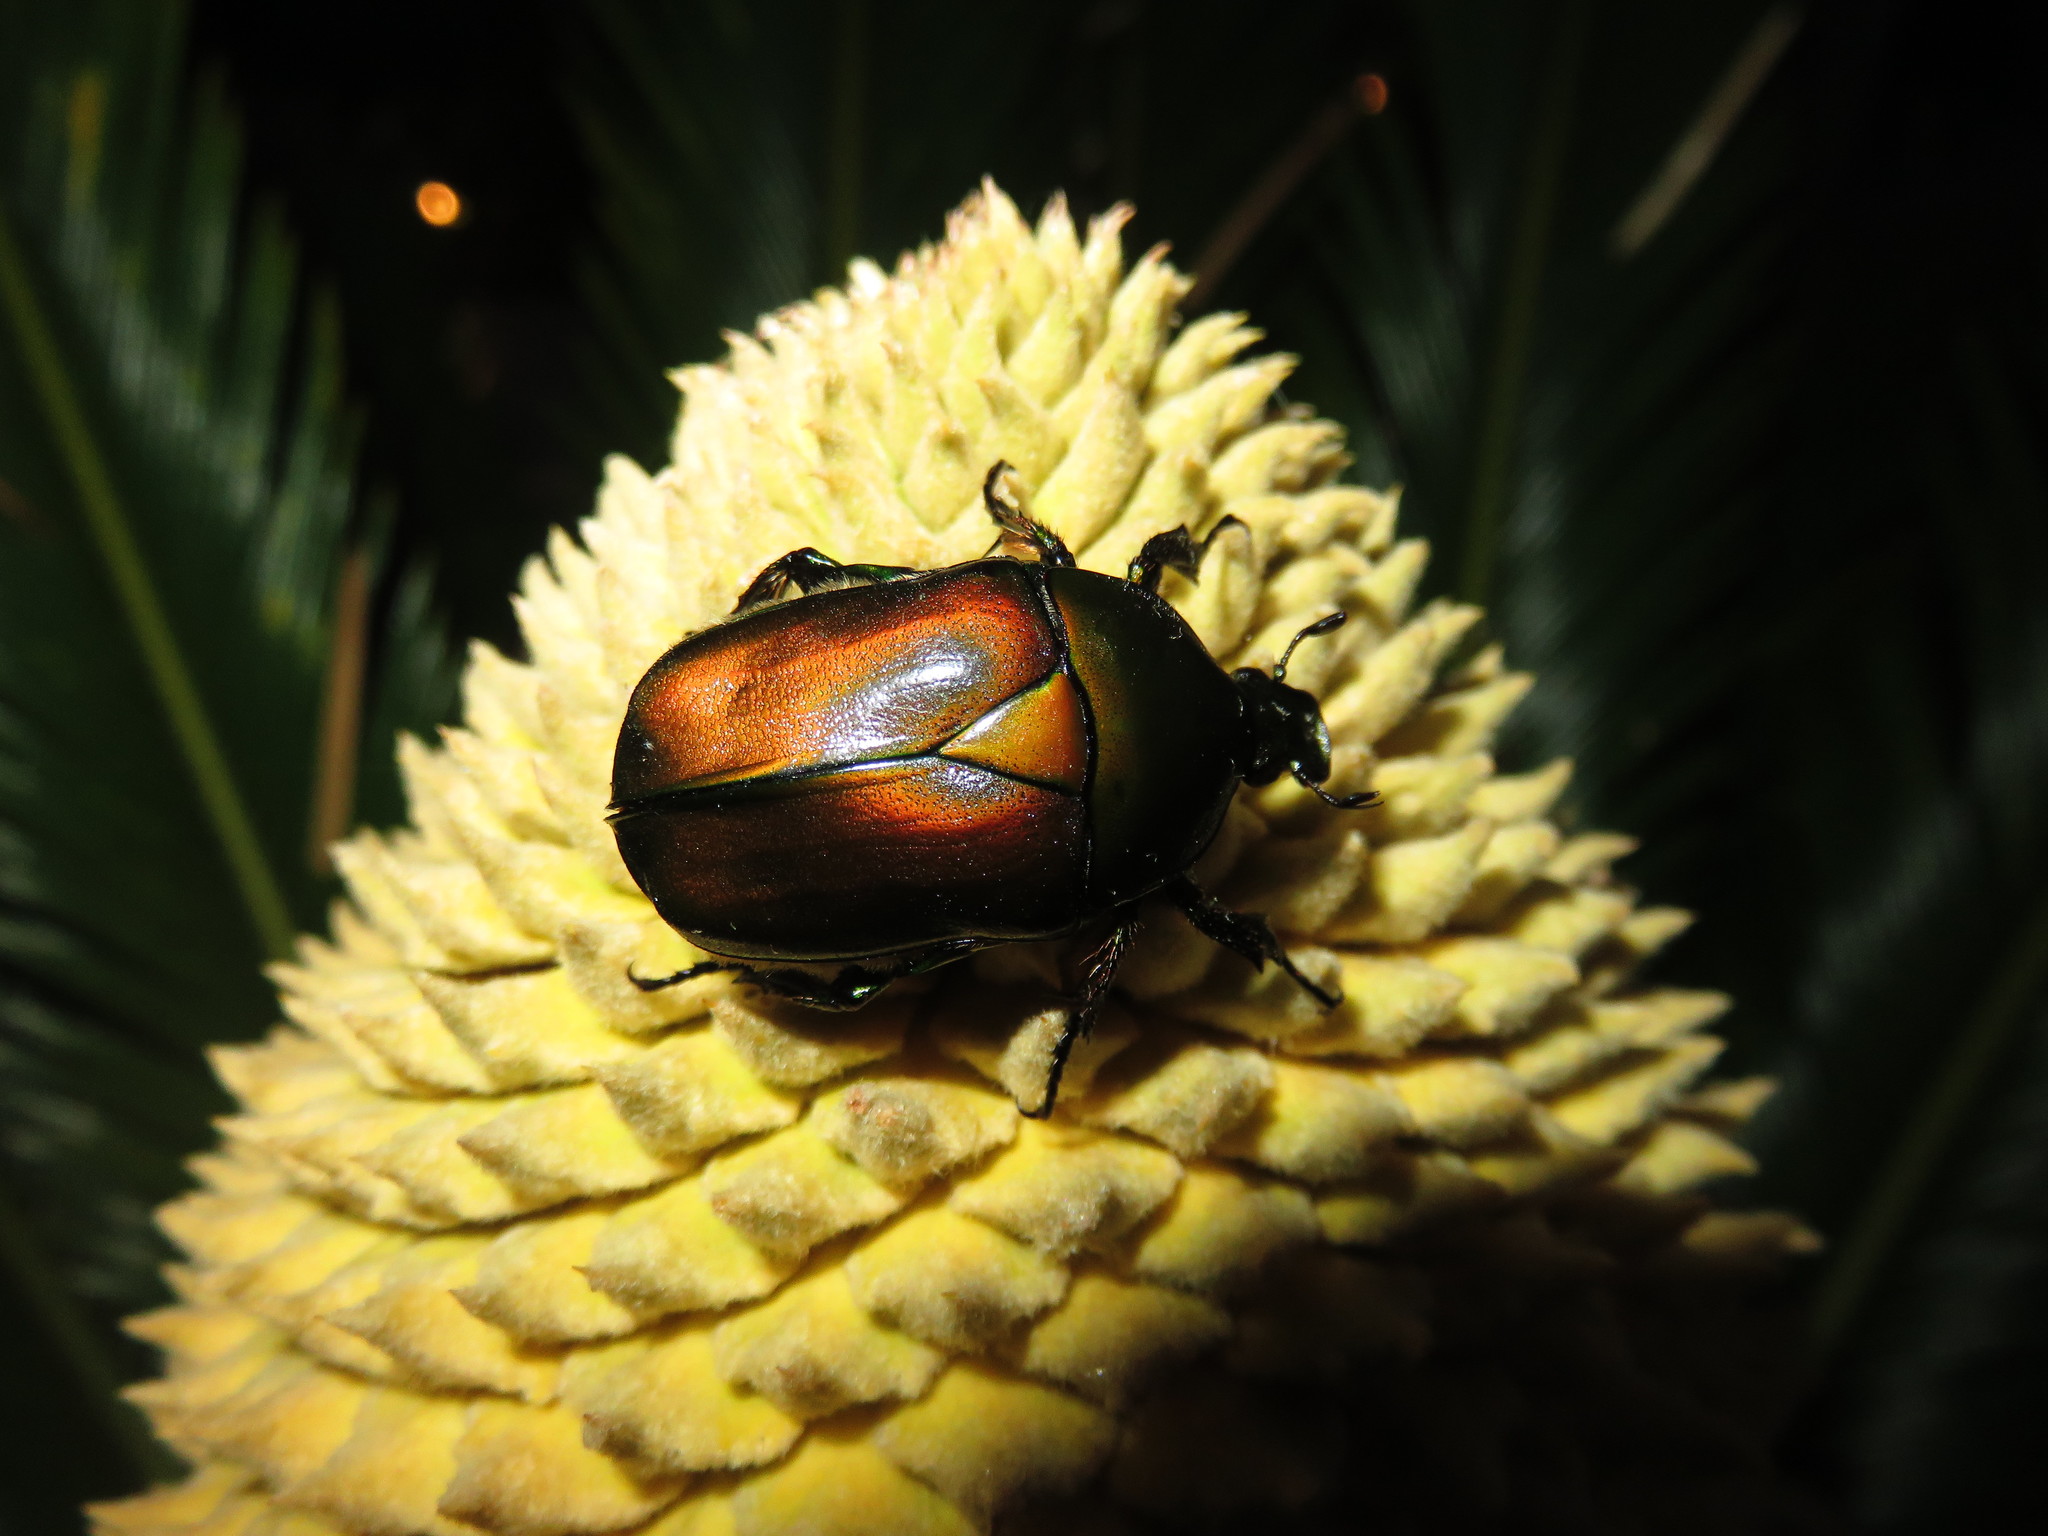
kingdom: Animalia
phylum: Arthropoda
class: Insecta
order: Coleoptera
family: Scarabaeidae
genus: Pseudotorynorrhina
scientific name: Pseudotorynorrhina japonica
